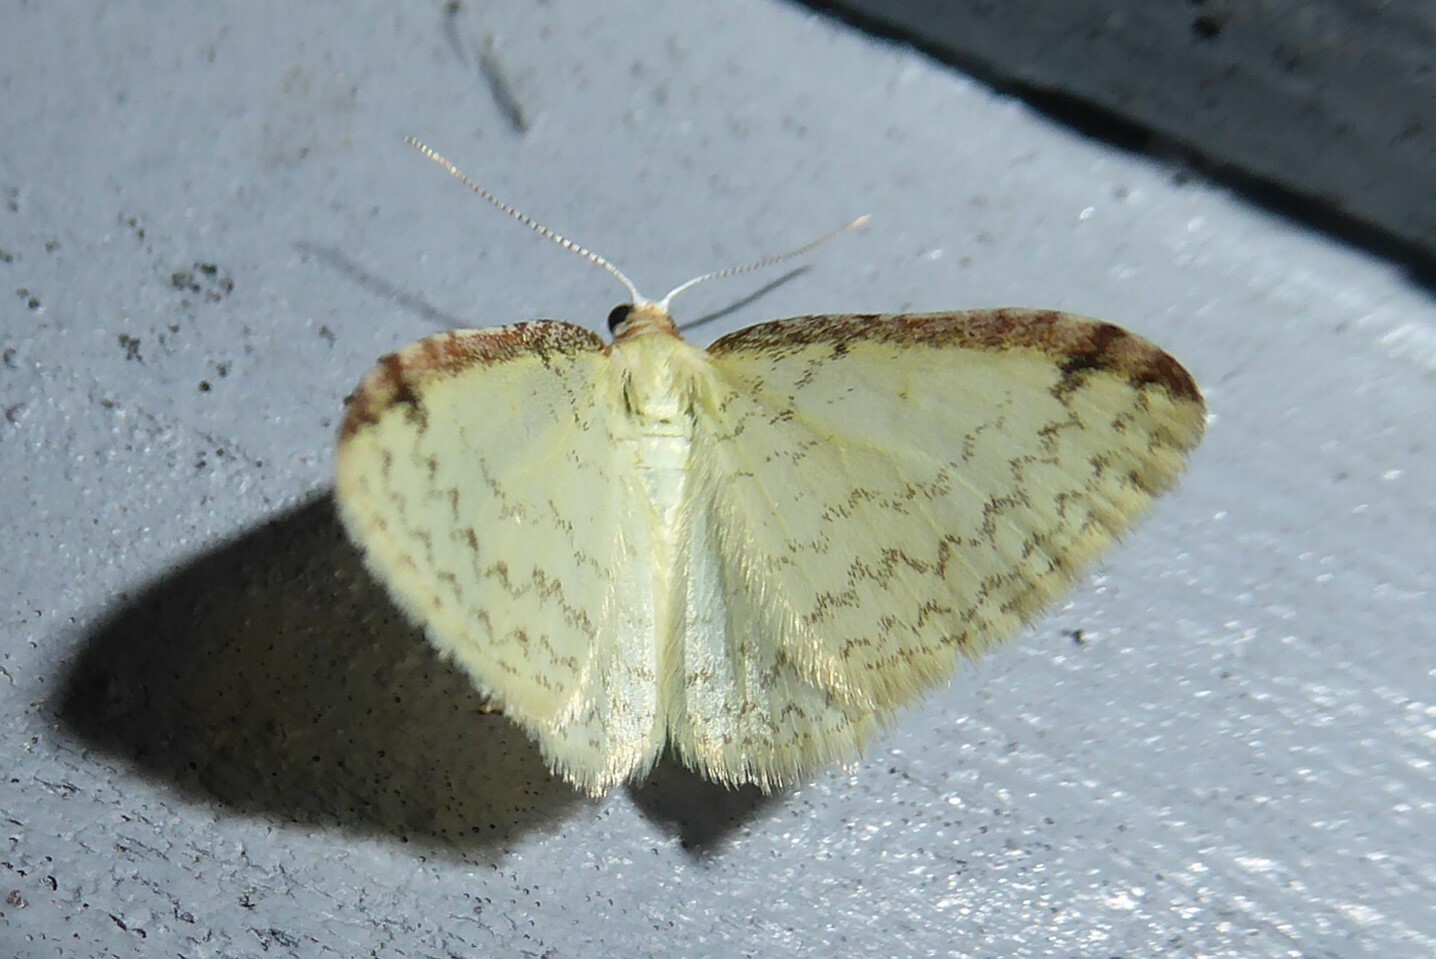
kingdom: Animalia
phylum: Arthropoda
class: Insecta
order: Lepidoptera
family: Geometridae
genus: Epiphryne
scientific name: Epiphryne undosata
